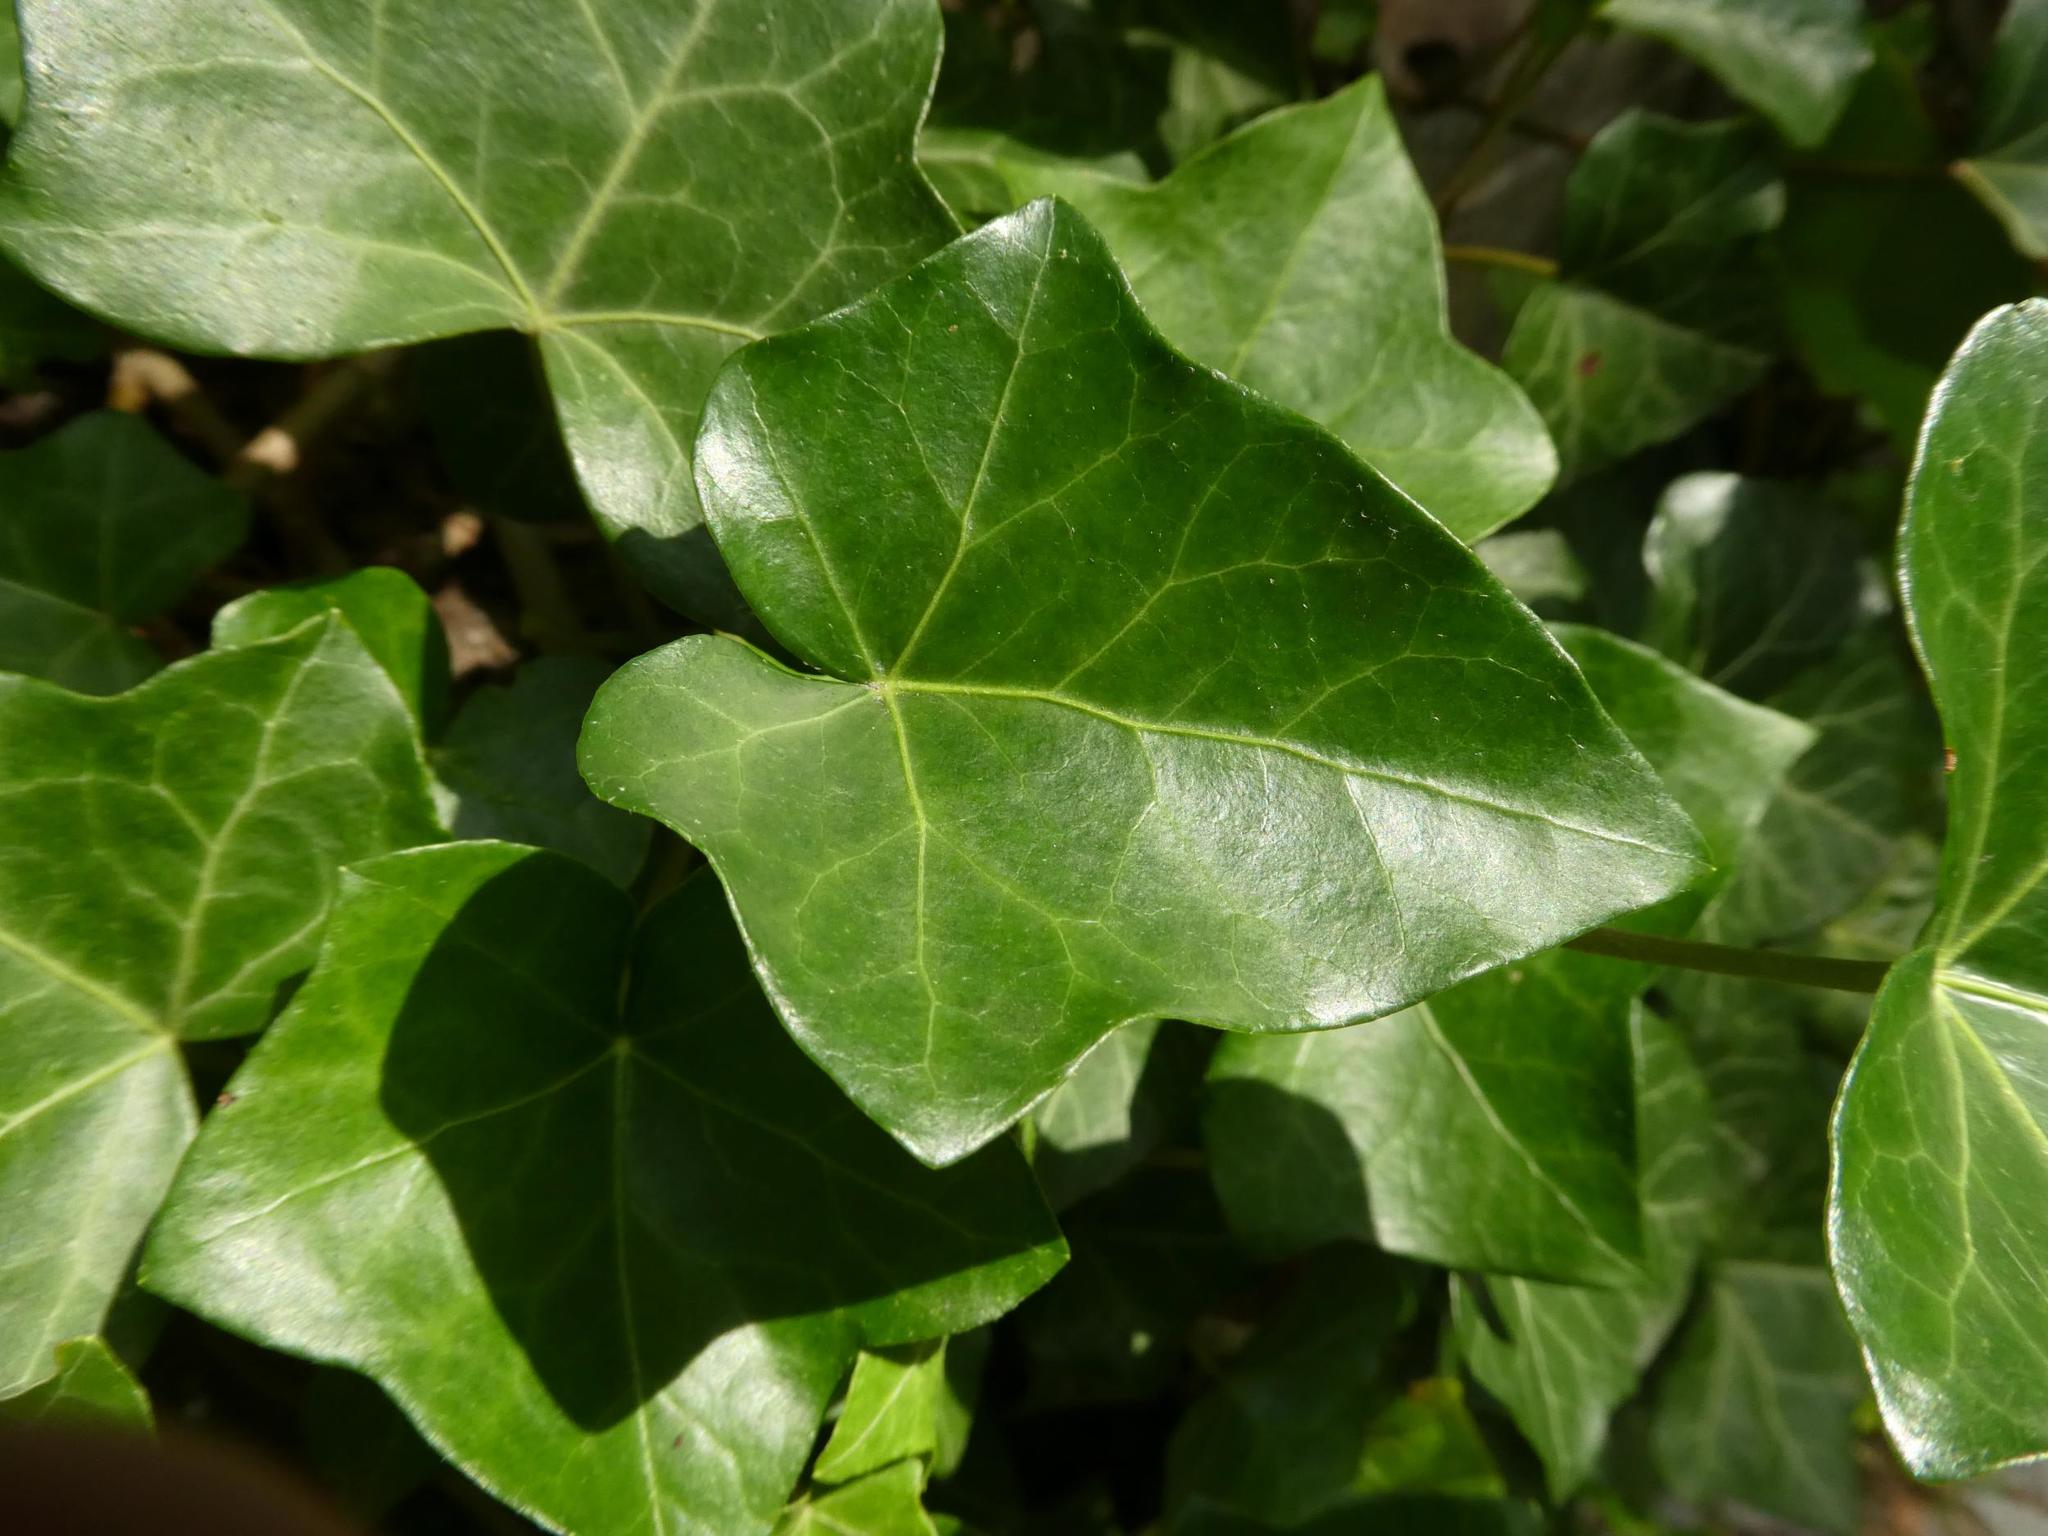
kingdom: Plantae
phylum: Tracheophyta
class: Magnoliopsida
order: Apiales
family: Araliaceae
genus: Hedera
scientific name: Hedera helix
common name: Ivy
